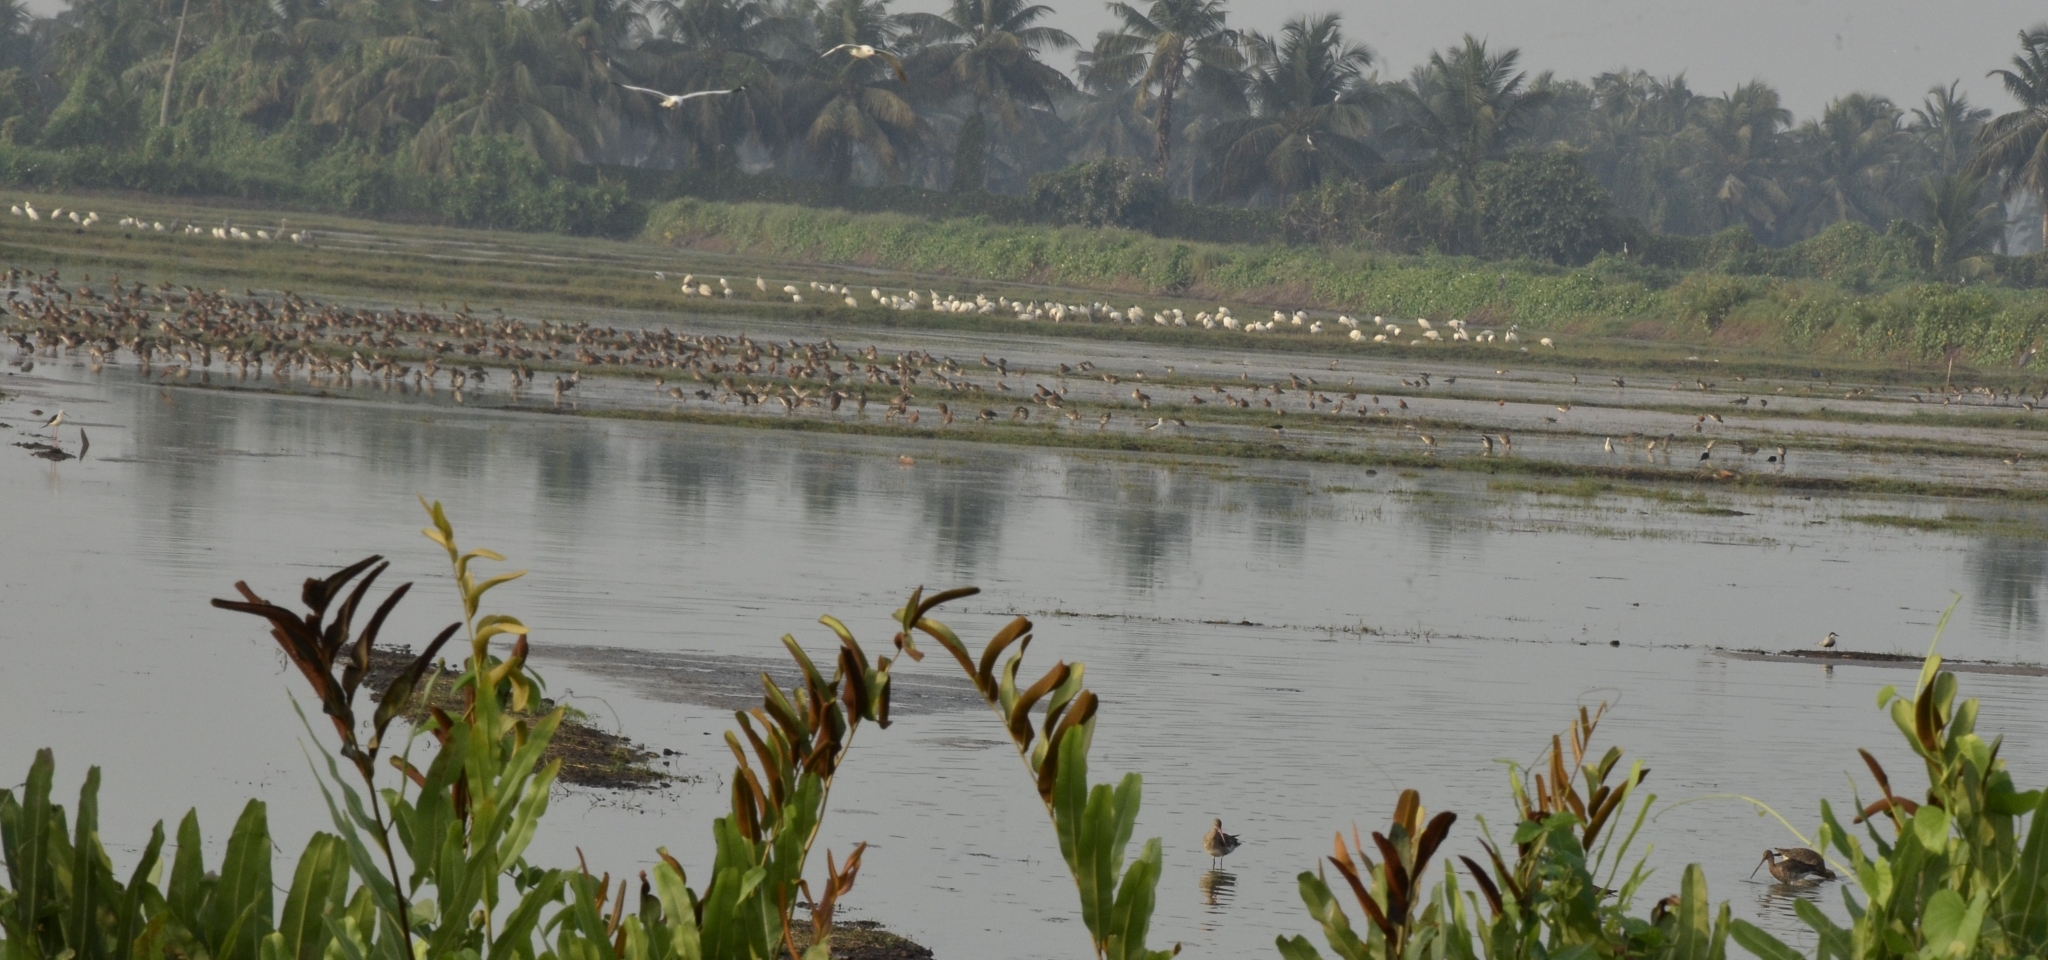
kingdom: Animalia
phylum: Chordata
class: Aves
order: Charadriiformes
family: Scolopacidae
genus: Limosa
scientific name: Limosa limosa
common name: Black-tailed godwit
